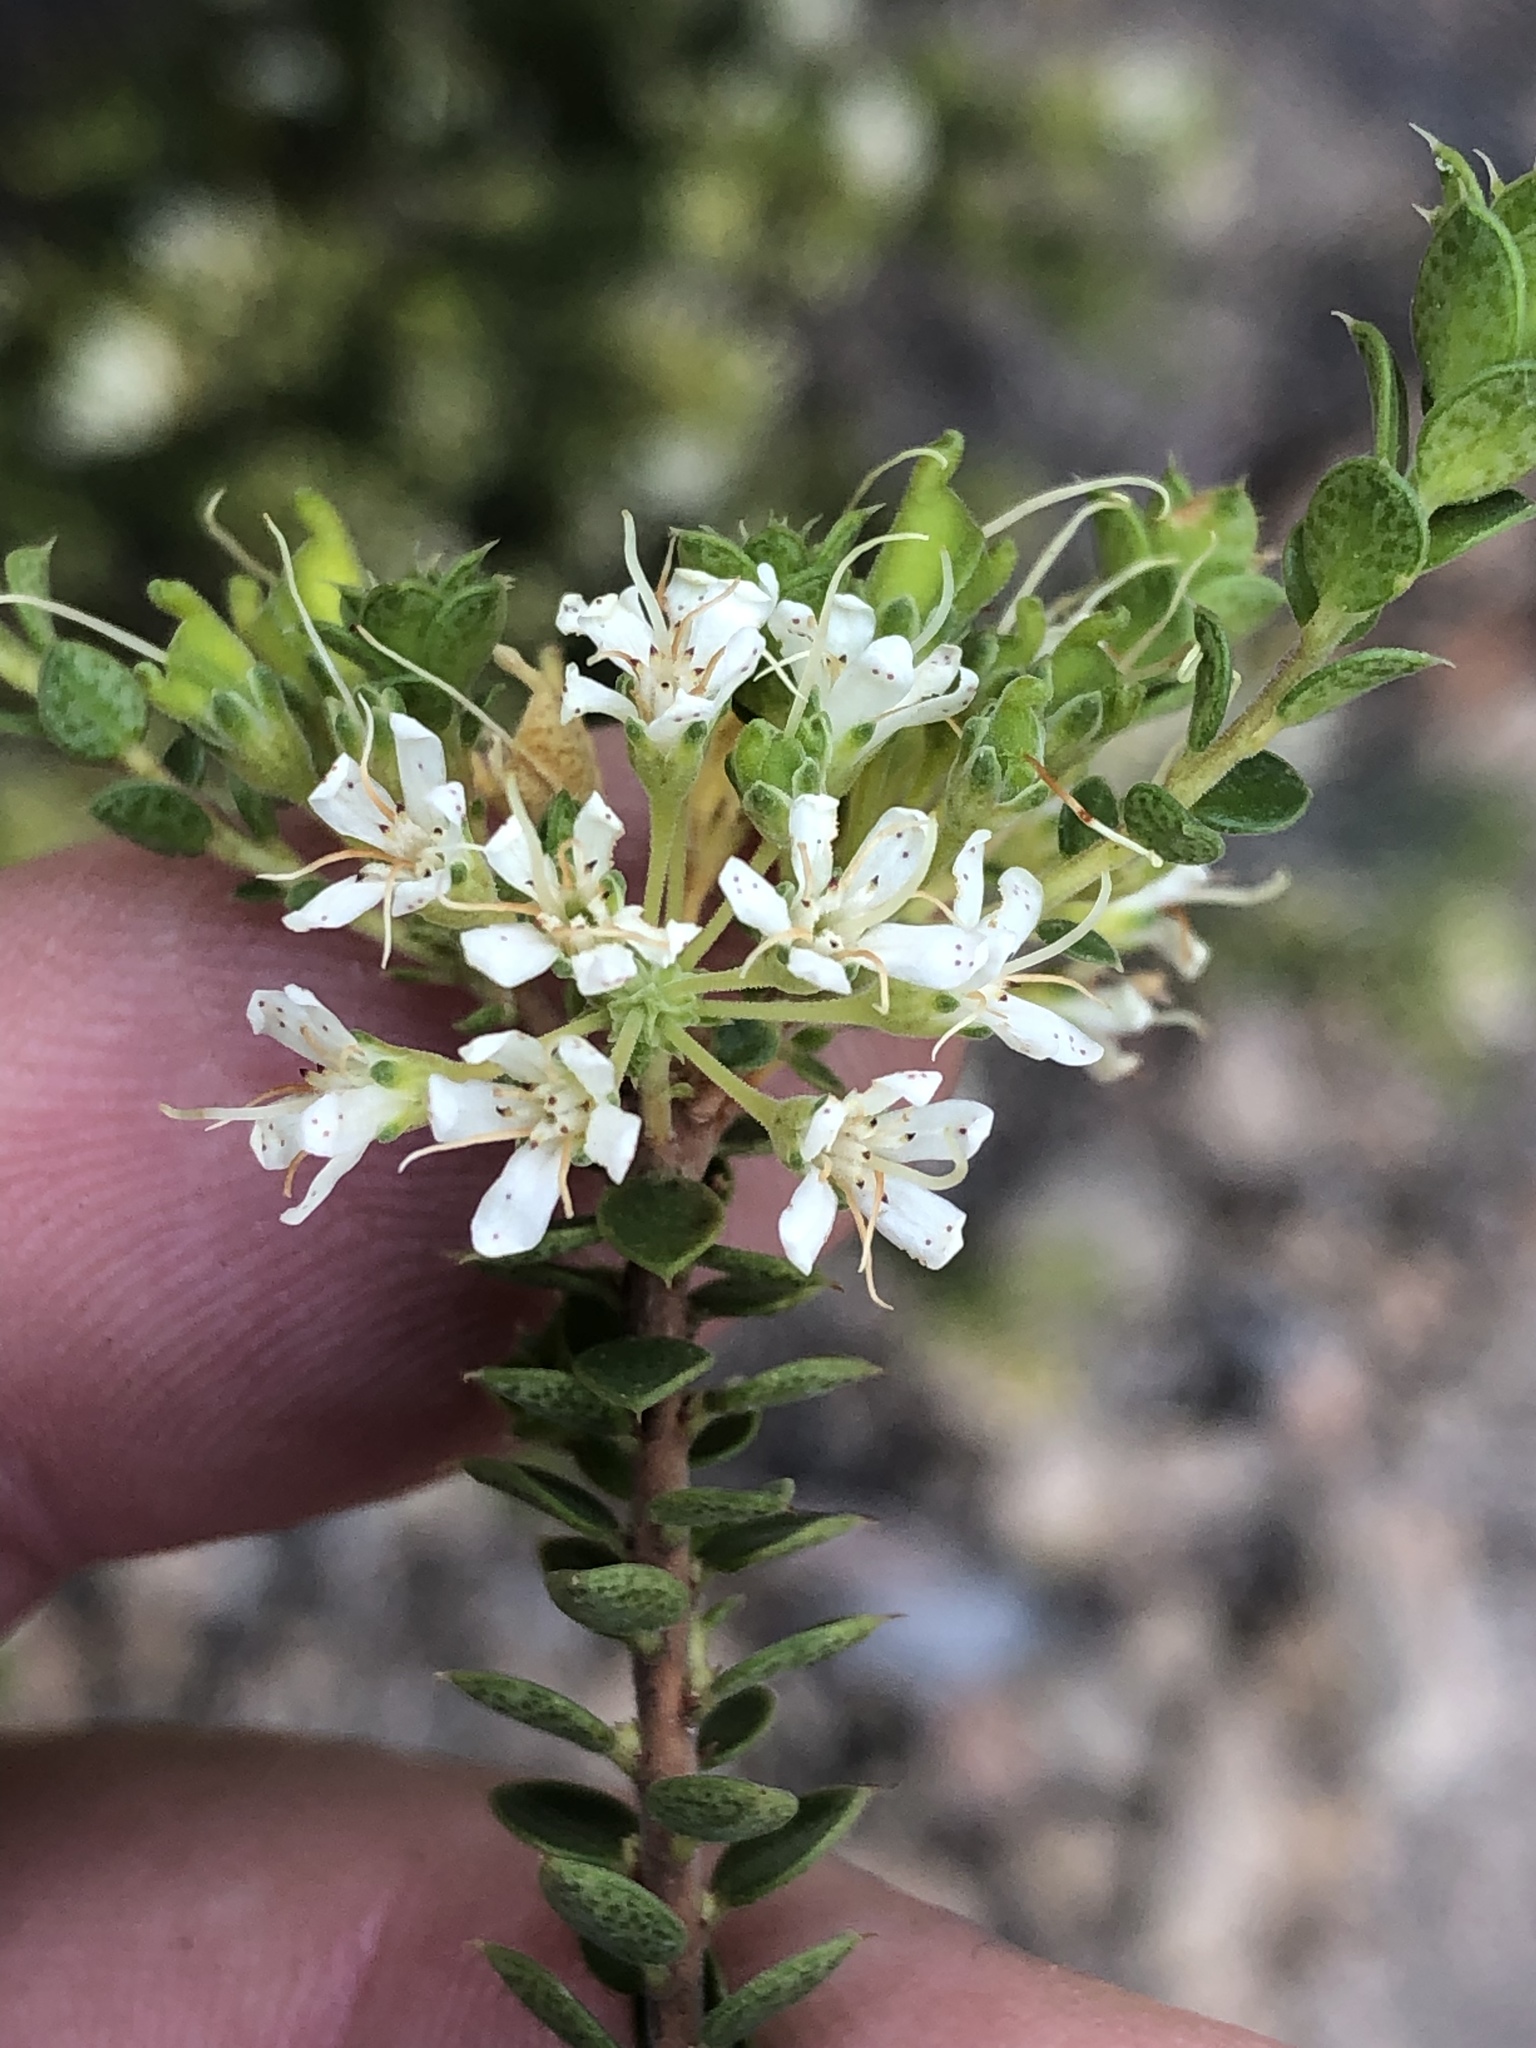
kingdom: Plantae
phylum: Tracheophyta
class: Magnoliopsida
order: Sapindales
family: Rutaceae
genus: Agathosma
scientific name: Agathosma recurvifolia
